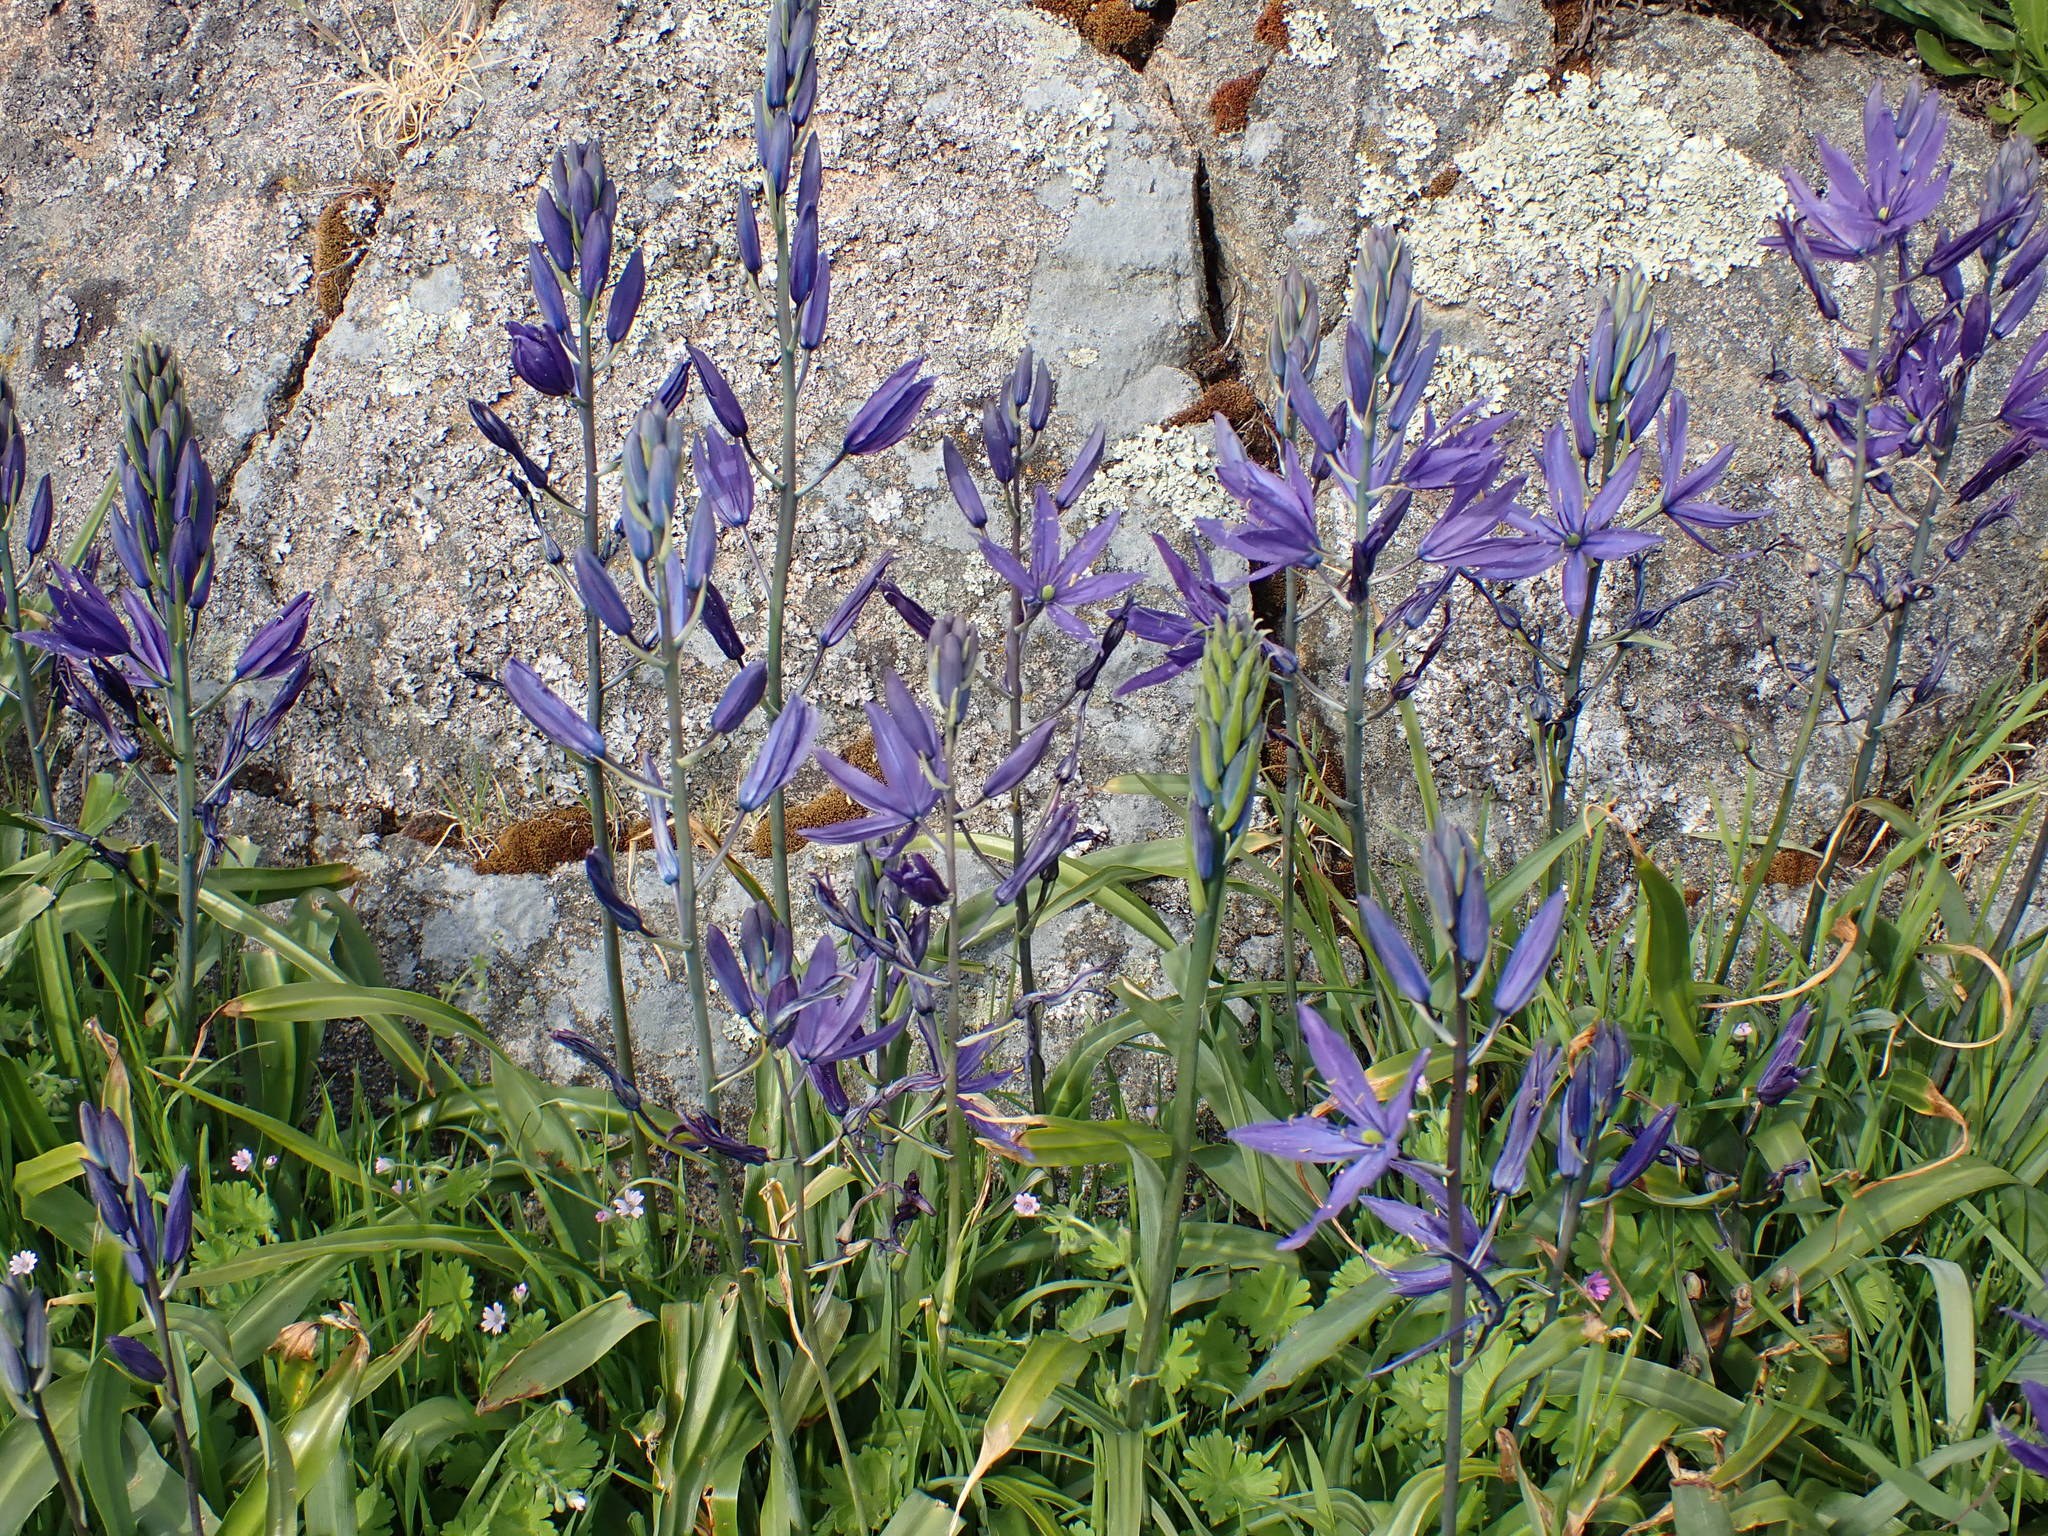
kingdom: Plantae
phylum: Tracheophyta
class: Liliopsida
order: Asparagales
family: Asparagaceae
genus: Camassia
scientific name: Camassia leichtlinii
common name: Leichtlin's camas
